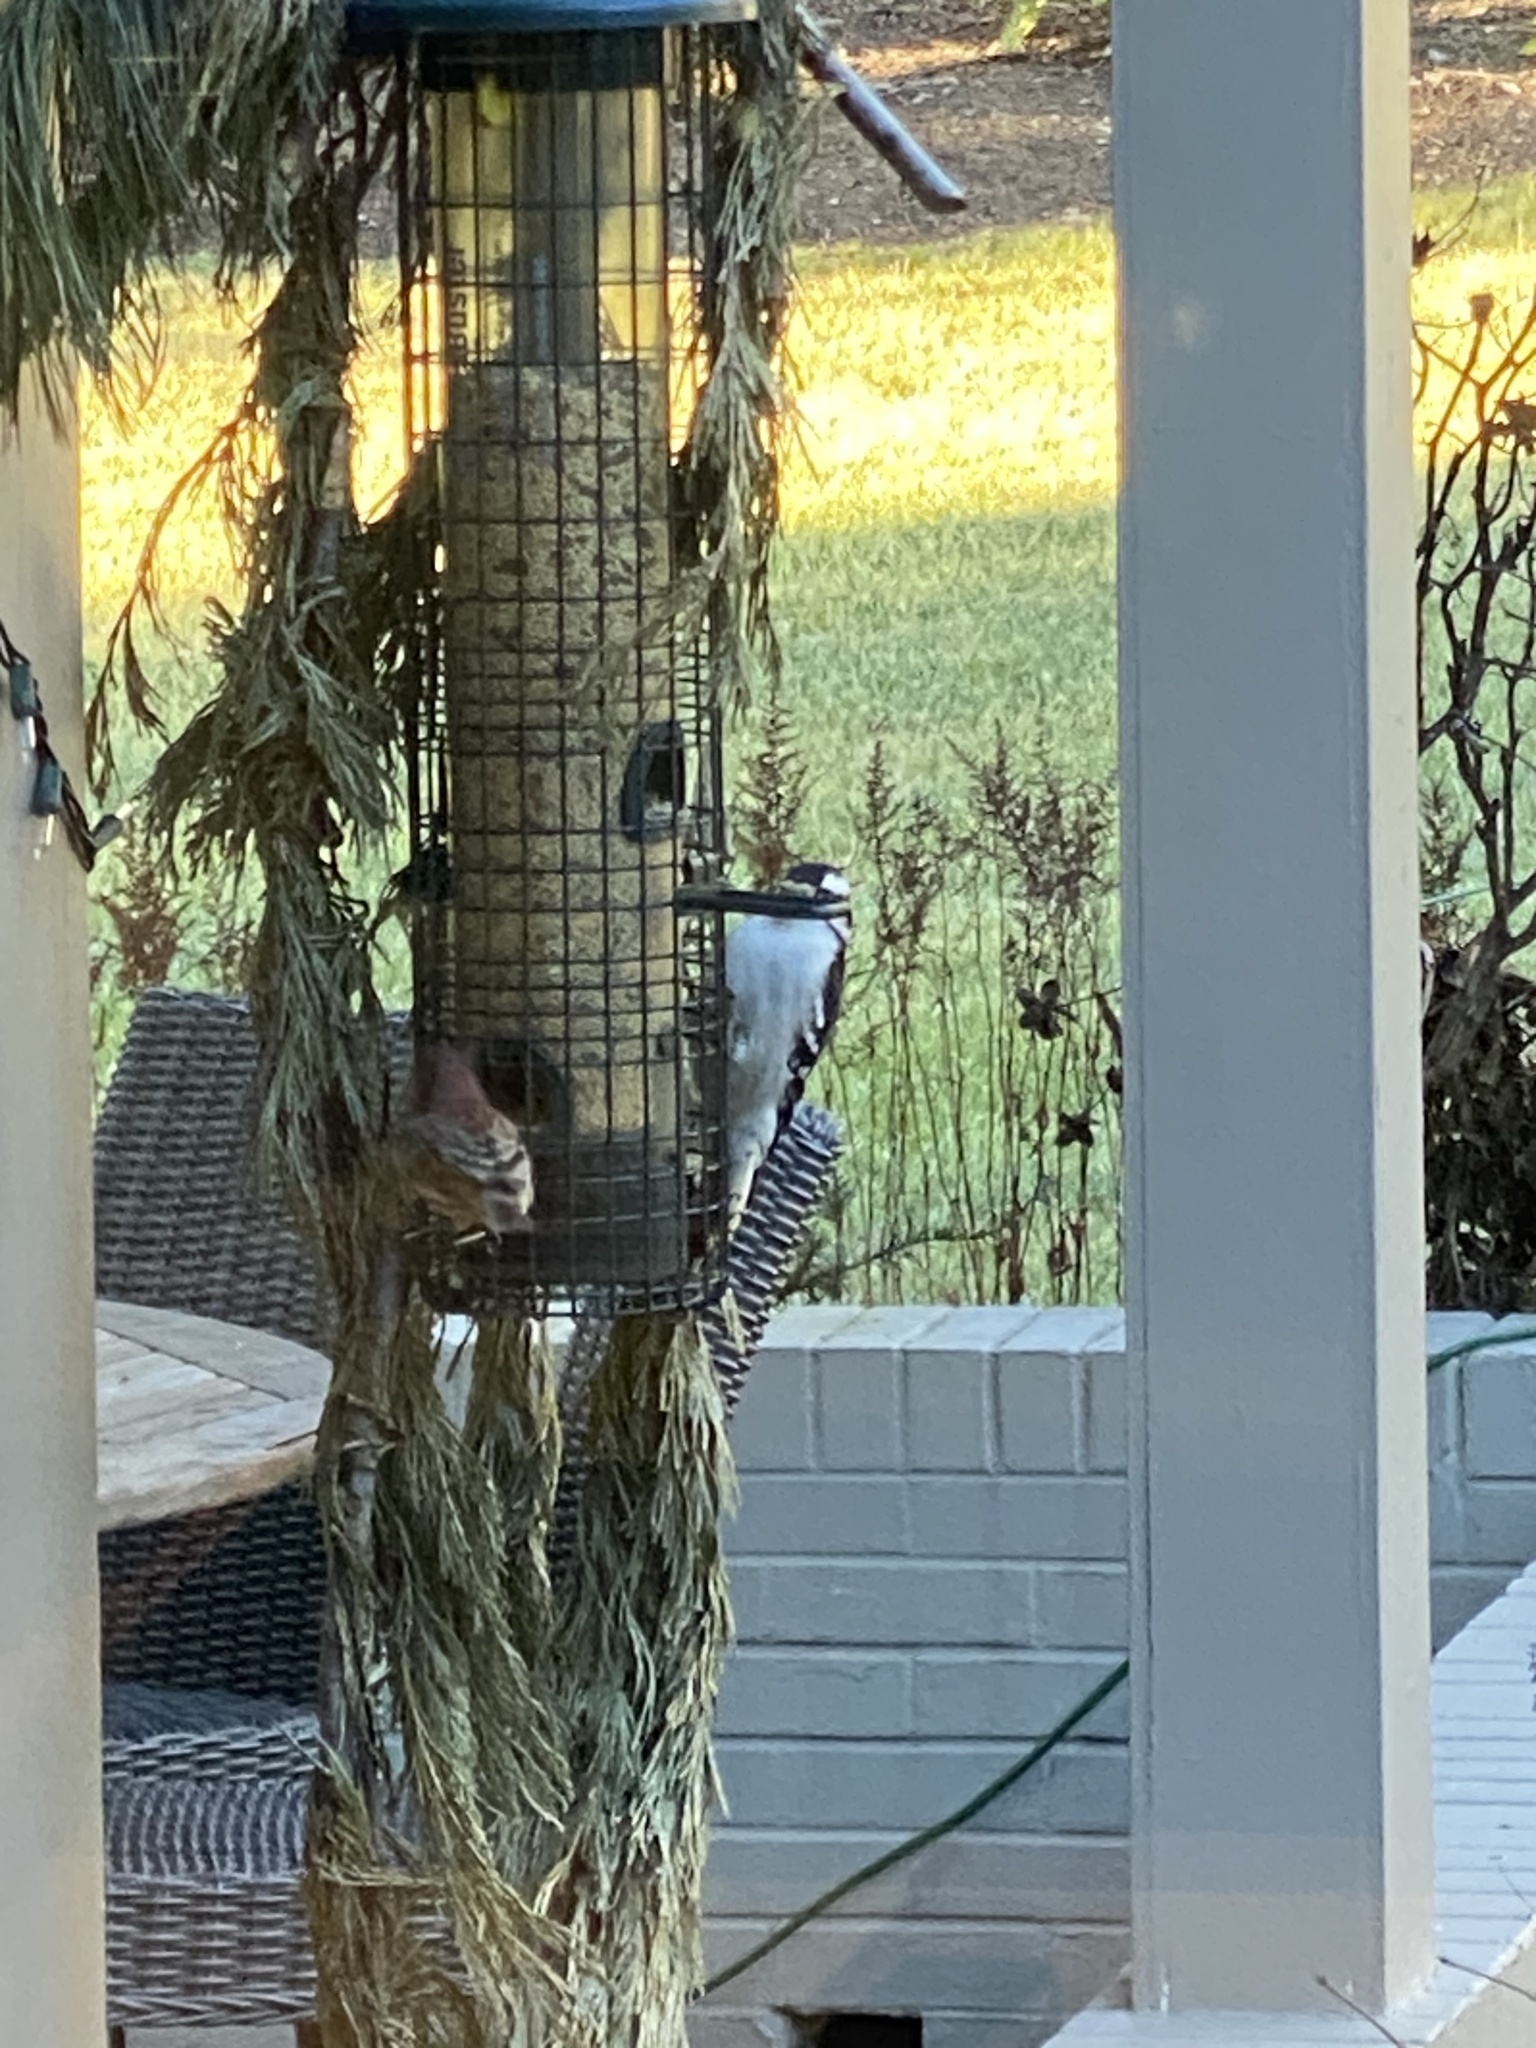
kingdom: Animalia
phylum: Chordata
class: Aves
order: Piciformes
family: Picidae
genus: Dryobates
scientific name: Dryobates pubescens
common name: Downy woodpecker
